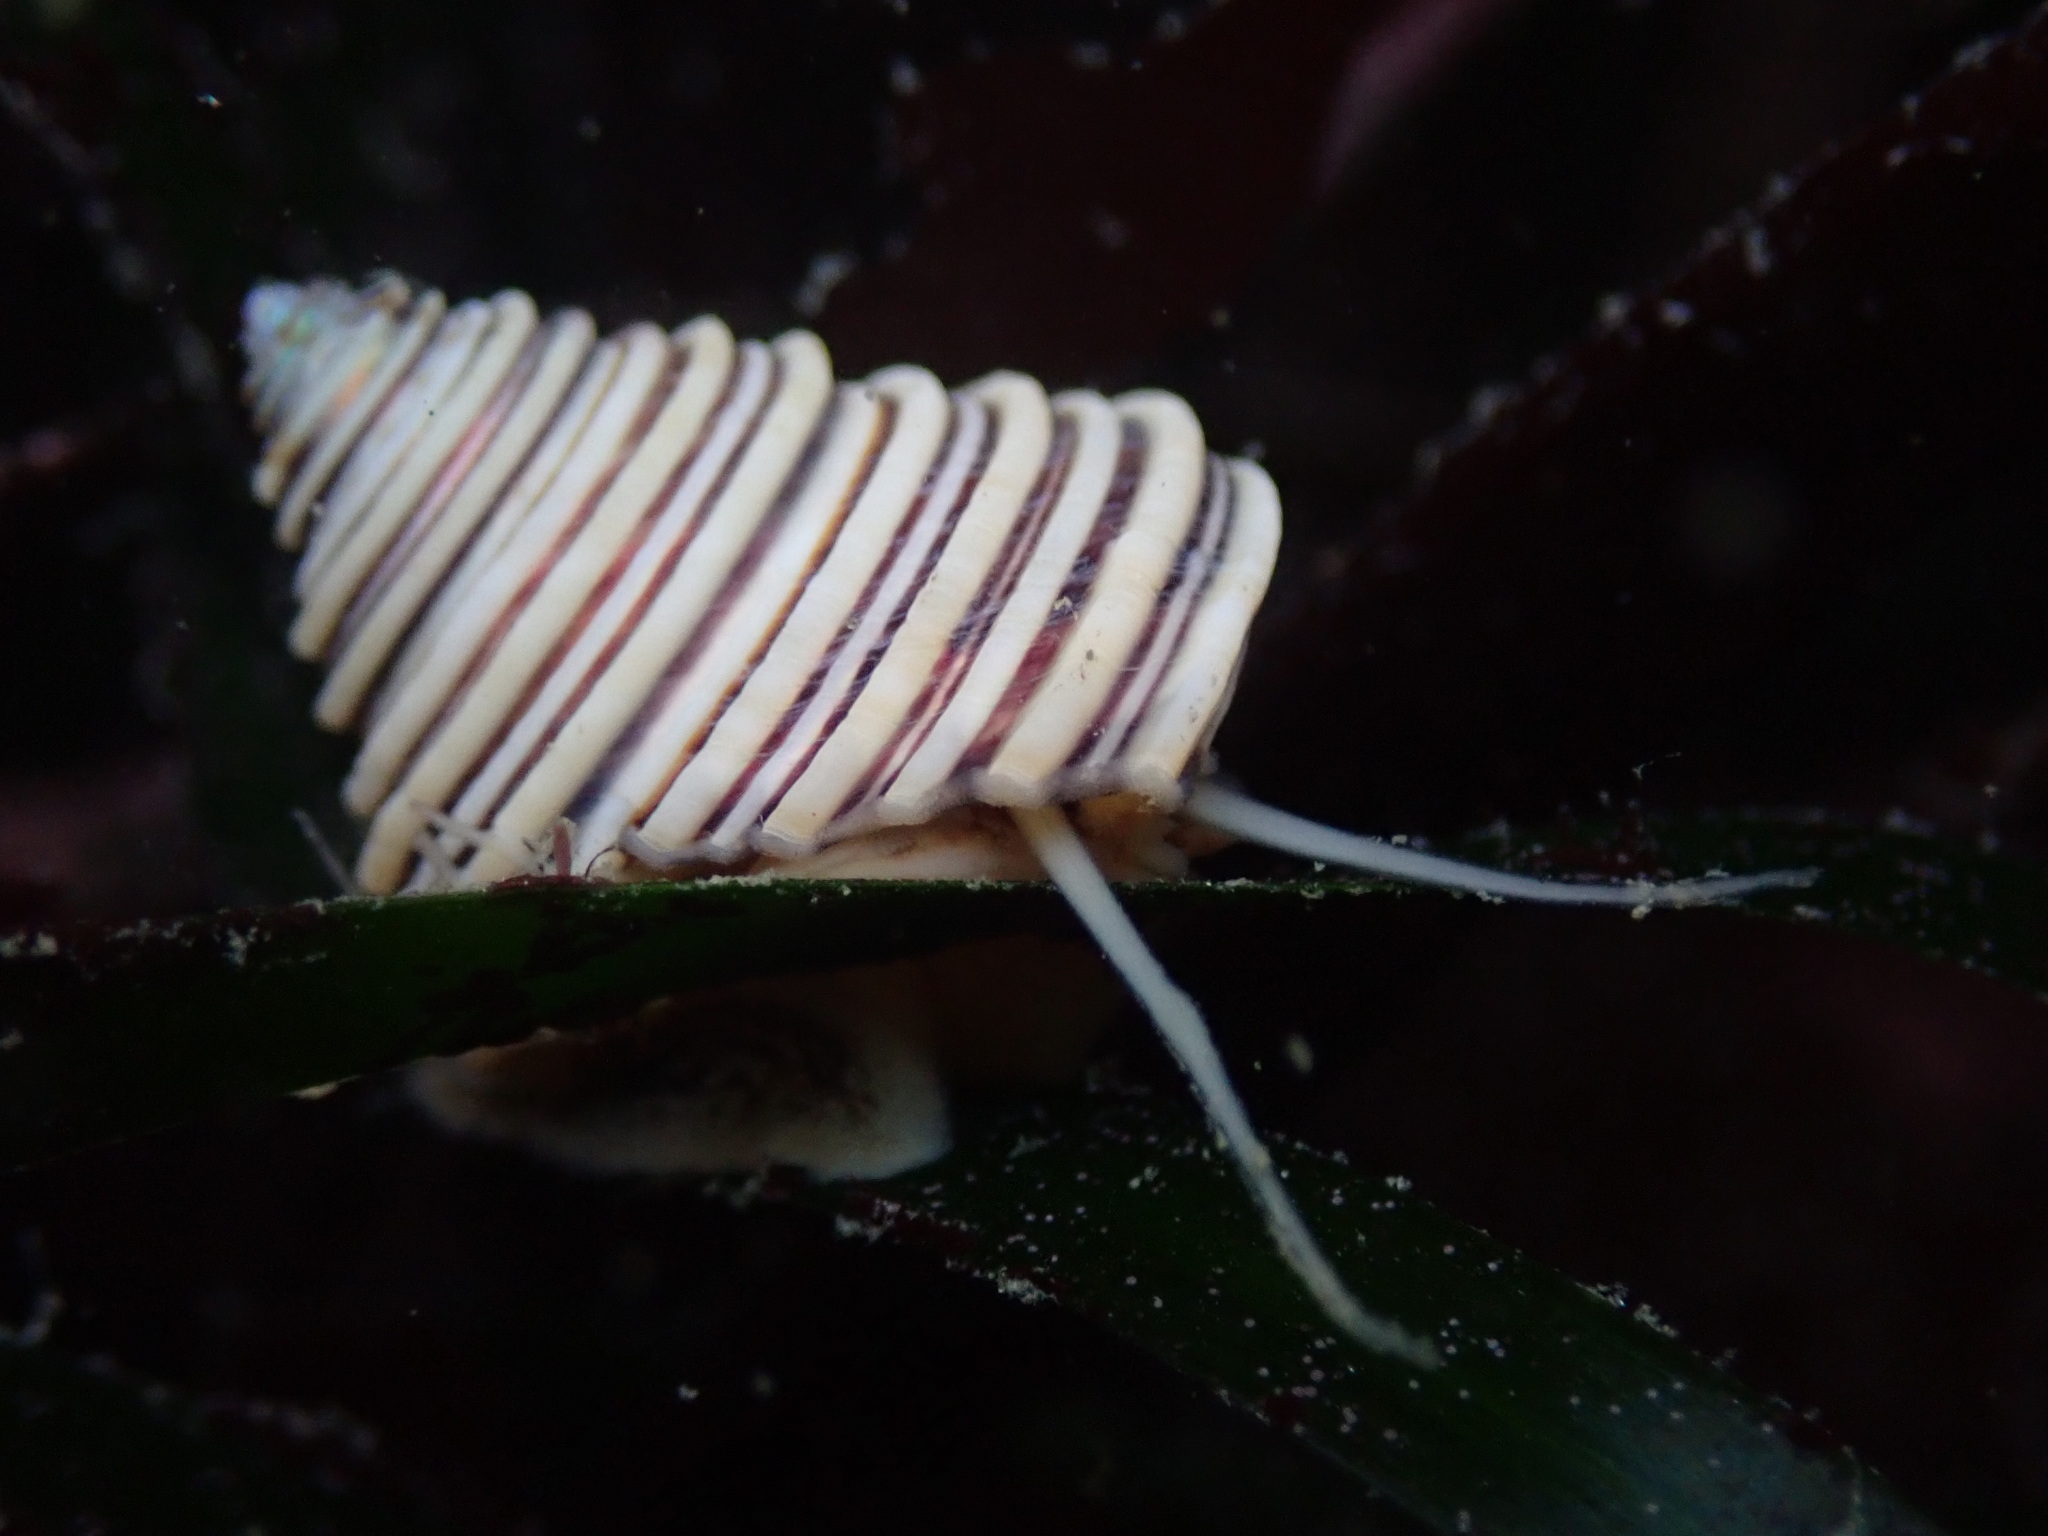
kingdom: Animalia
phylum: Mollusca
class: Gastropoda
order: Trochida
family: Calliostomatidae
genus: Calliostoma
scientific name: Calliostoma canaliculatum
